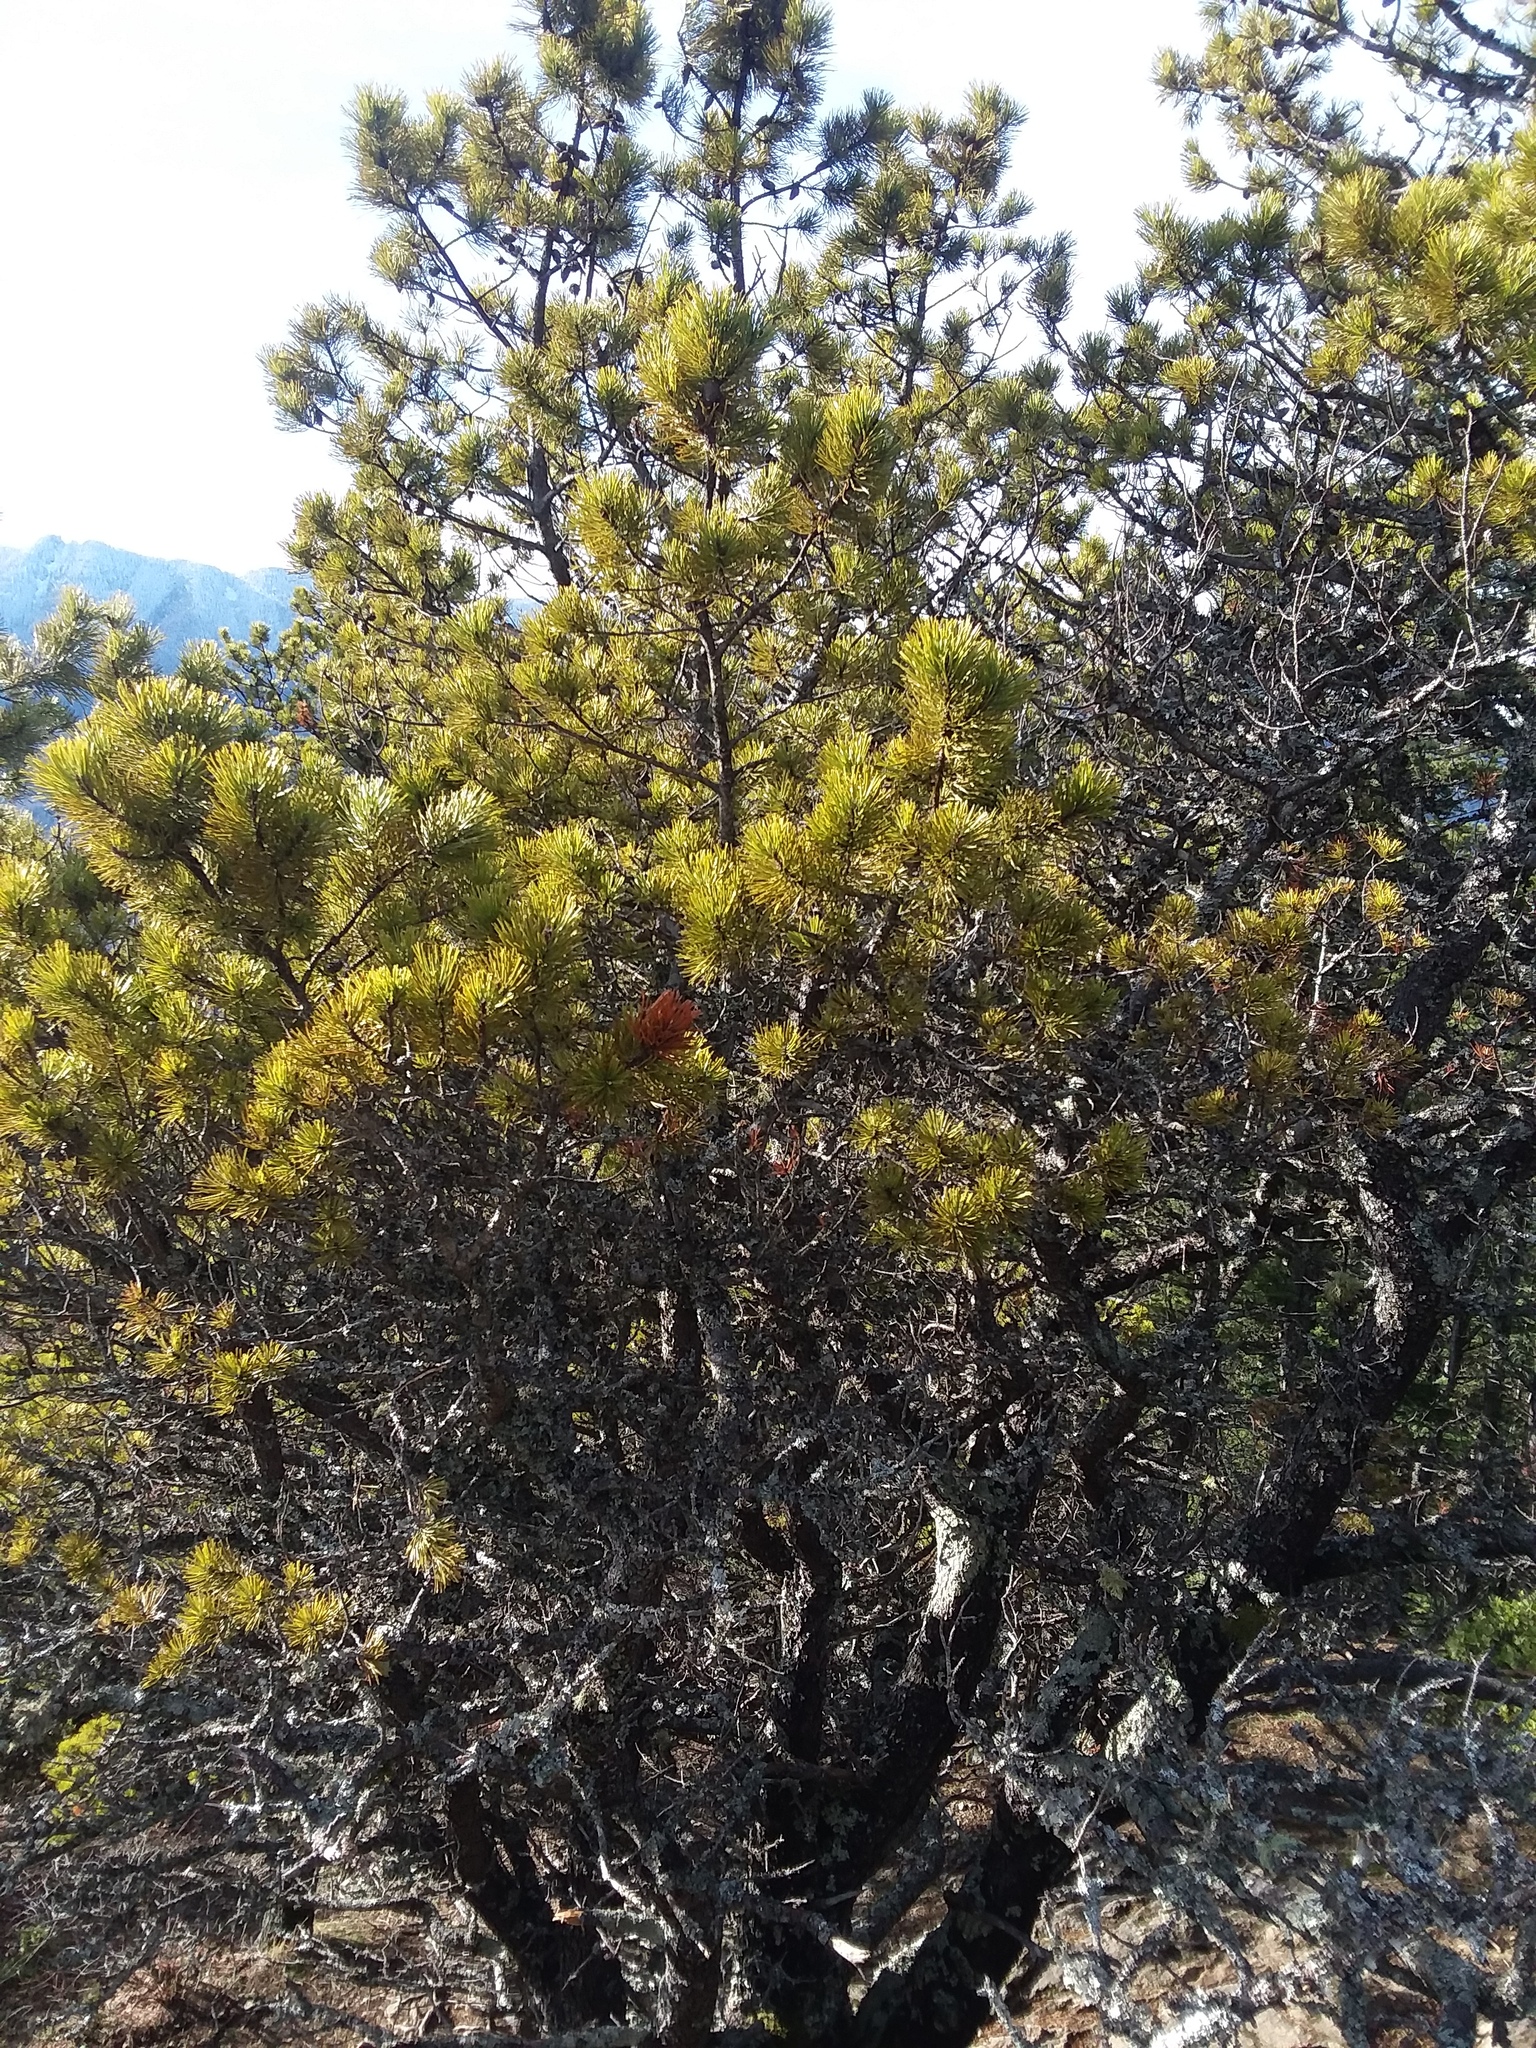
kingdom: Plantae
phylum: Tracheophyta
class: Pinopsida
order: Pinales
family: Pinaceae
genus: Pinus
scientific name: Pinus contorta
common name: Lodgepole pine
